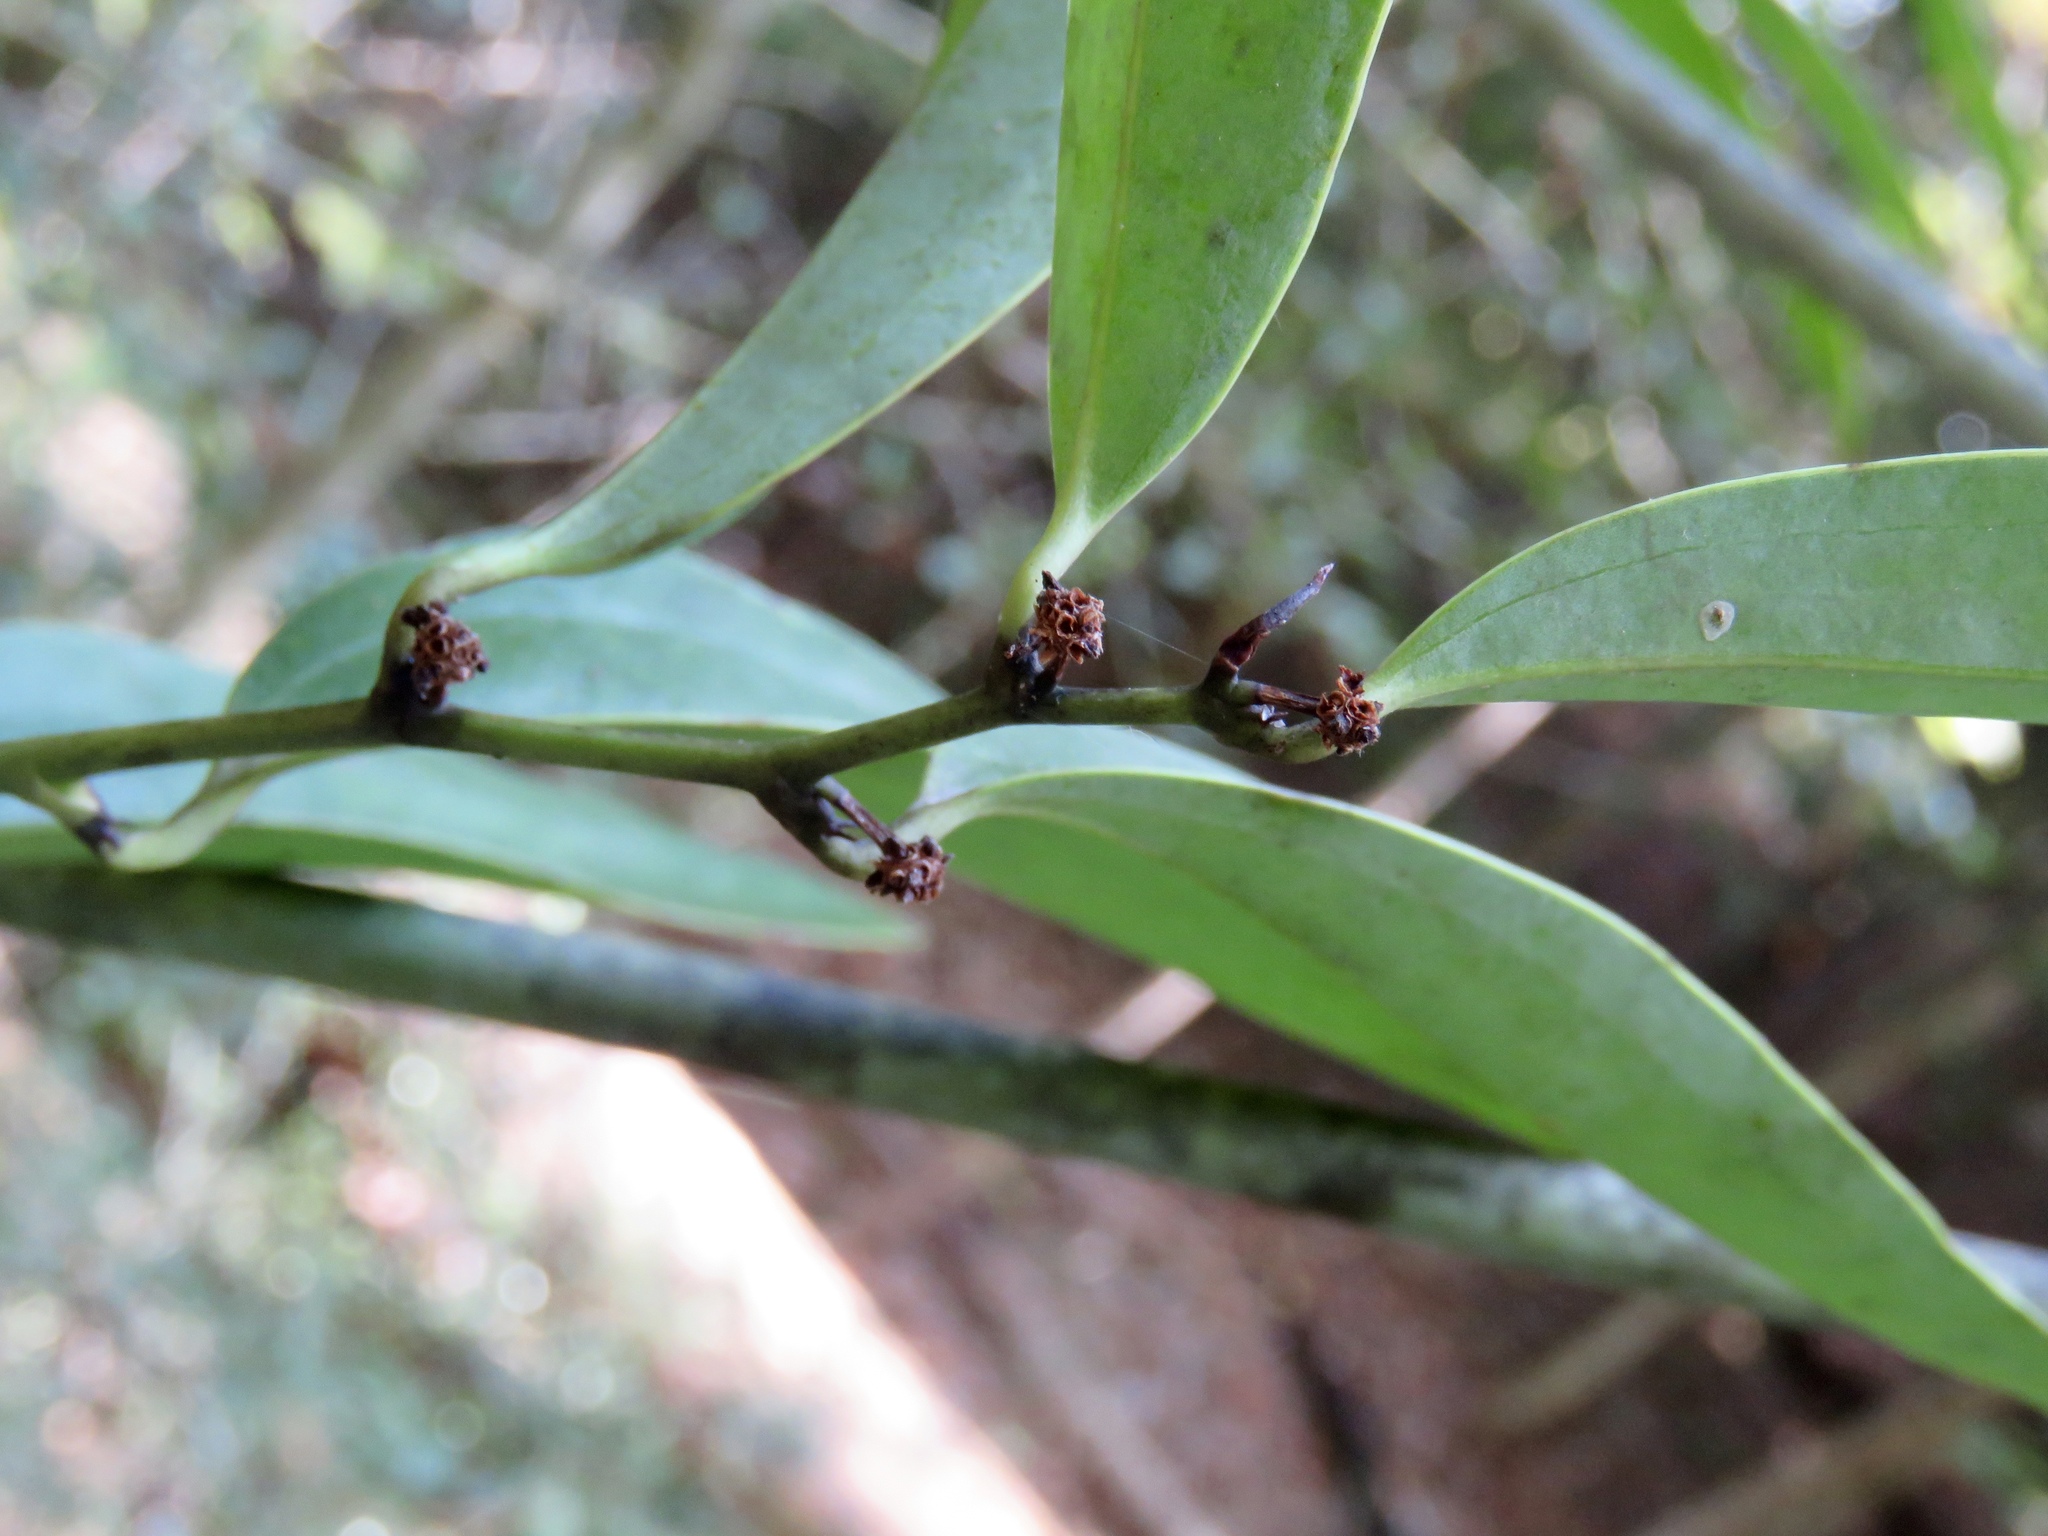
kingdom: Plantae
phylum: Tracheophyta
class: Liliopsida
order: Liliales
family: Smilacaceae
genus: Smilax
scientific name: Smilax laurifolia
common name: Bamboovine
